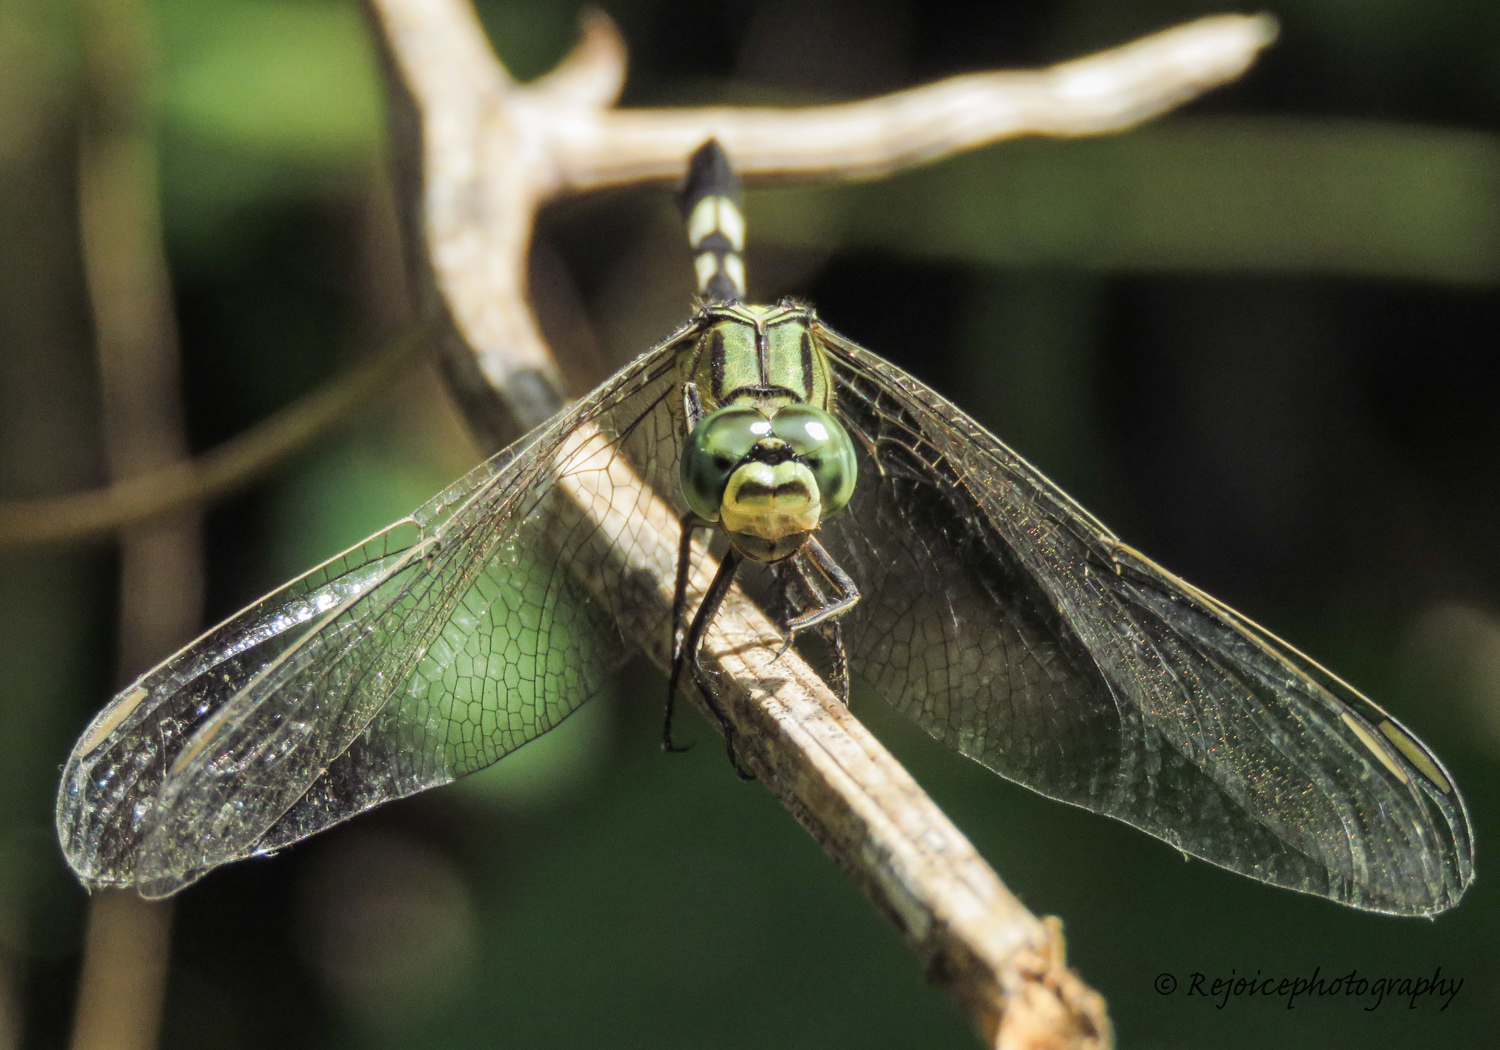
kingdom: Animalia
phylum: Arthropoda
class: Insecta
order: Odonata
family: Libellulidae
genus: Orthetrum
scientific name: Orthetrum sabina
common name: Slender skimmer
